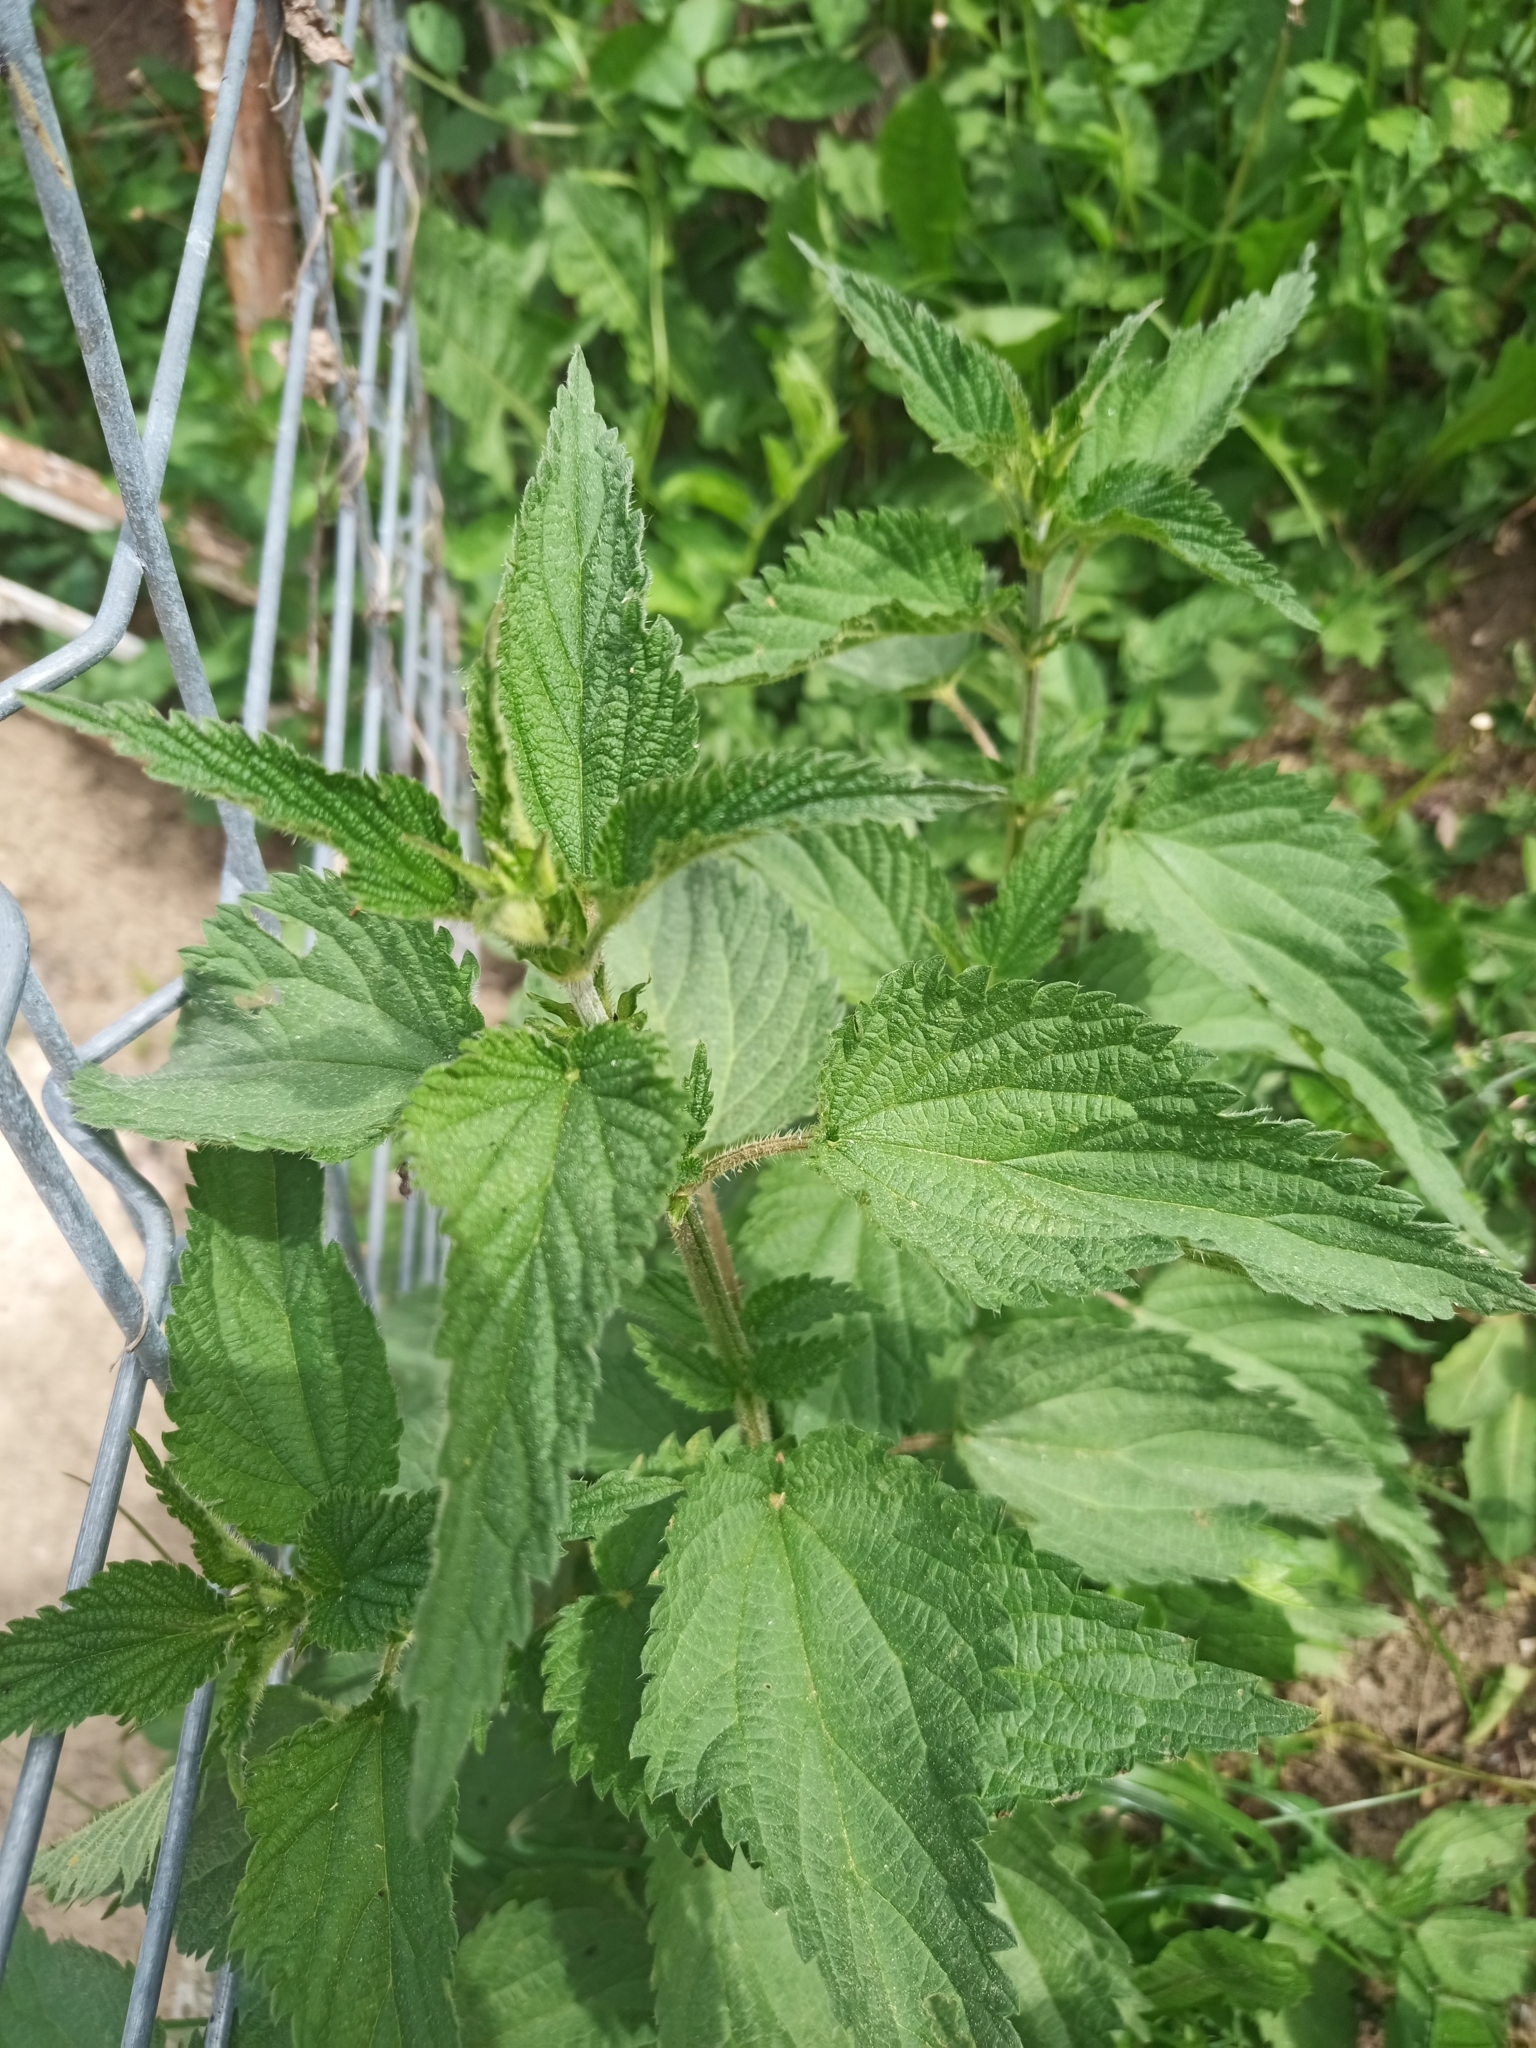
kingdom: Plantae
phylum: Tracheophyta
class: Magnoliopsida
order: Rosales
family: Urticaceae
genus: Urtica
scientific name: Urtica dioica
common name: Common nettle
